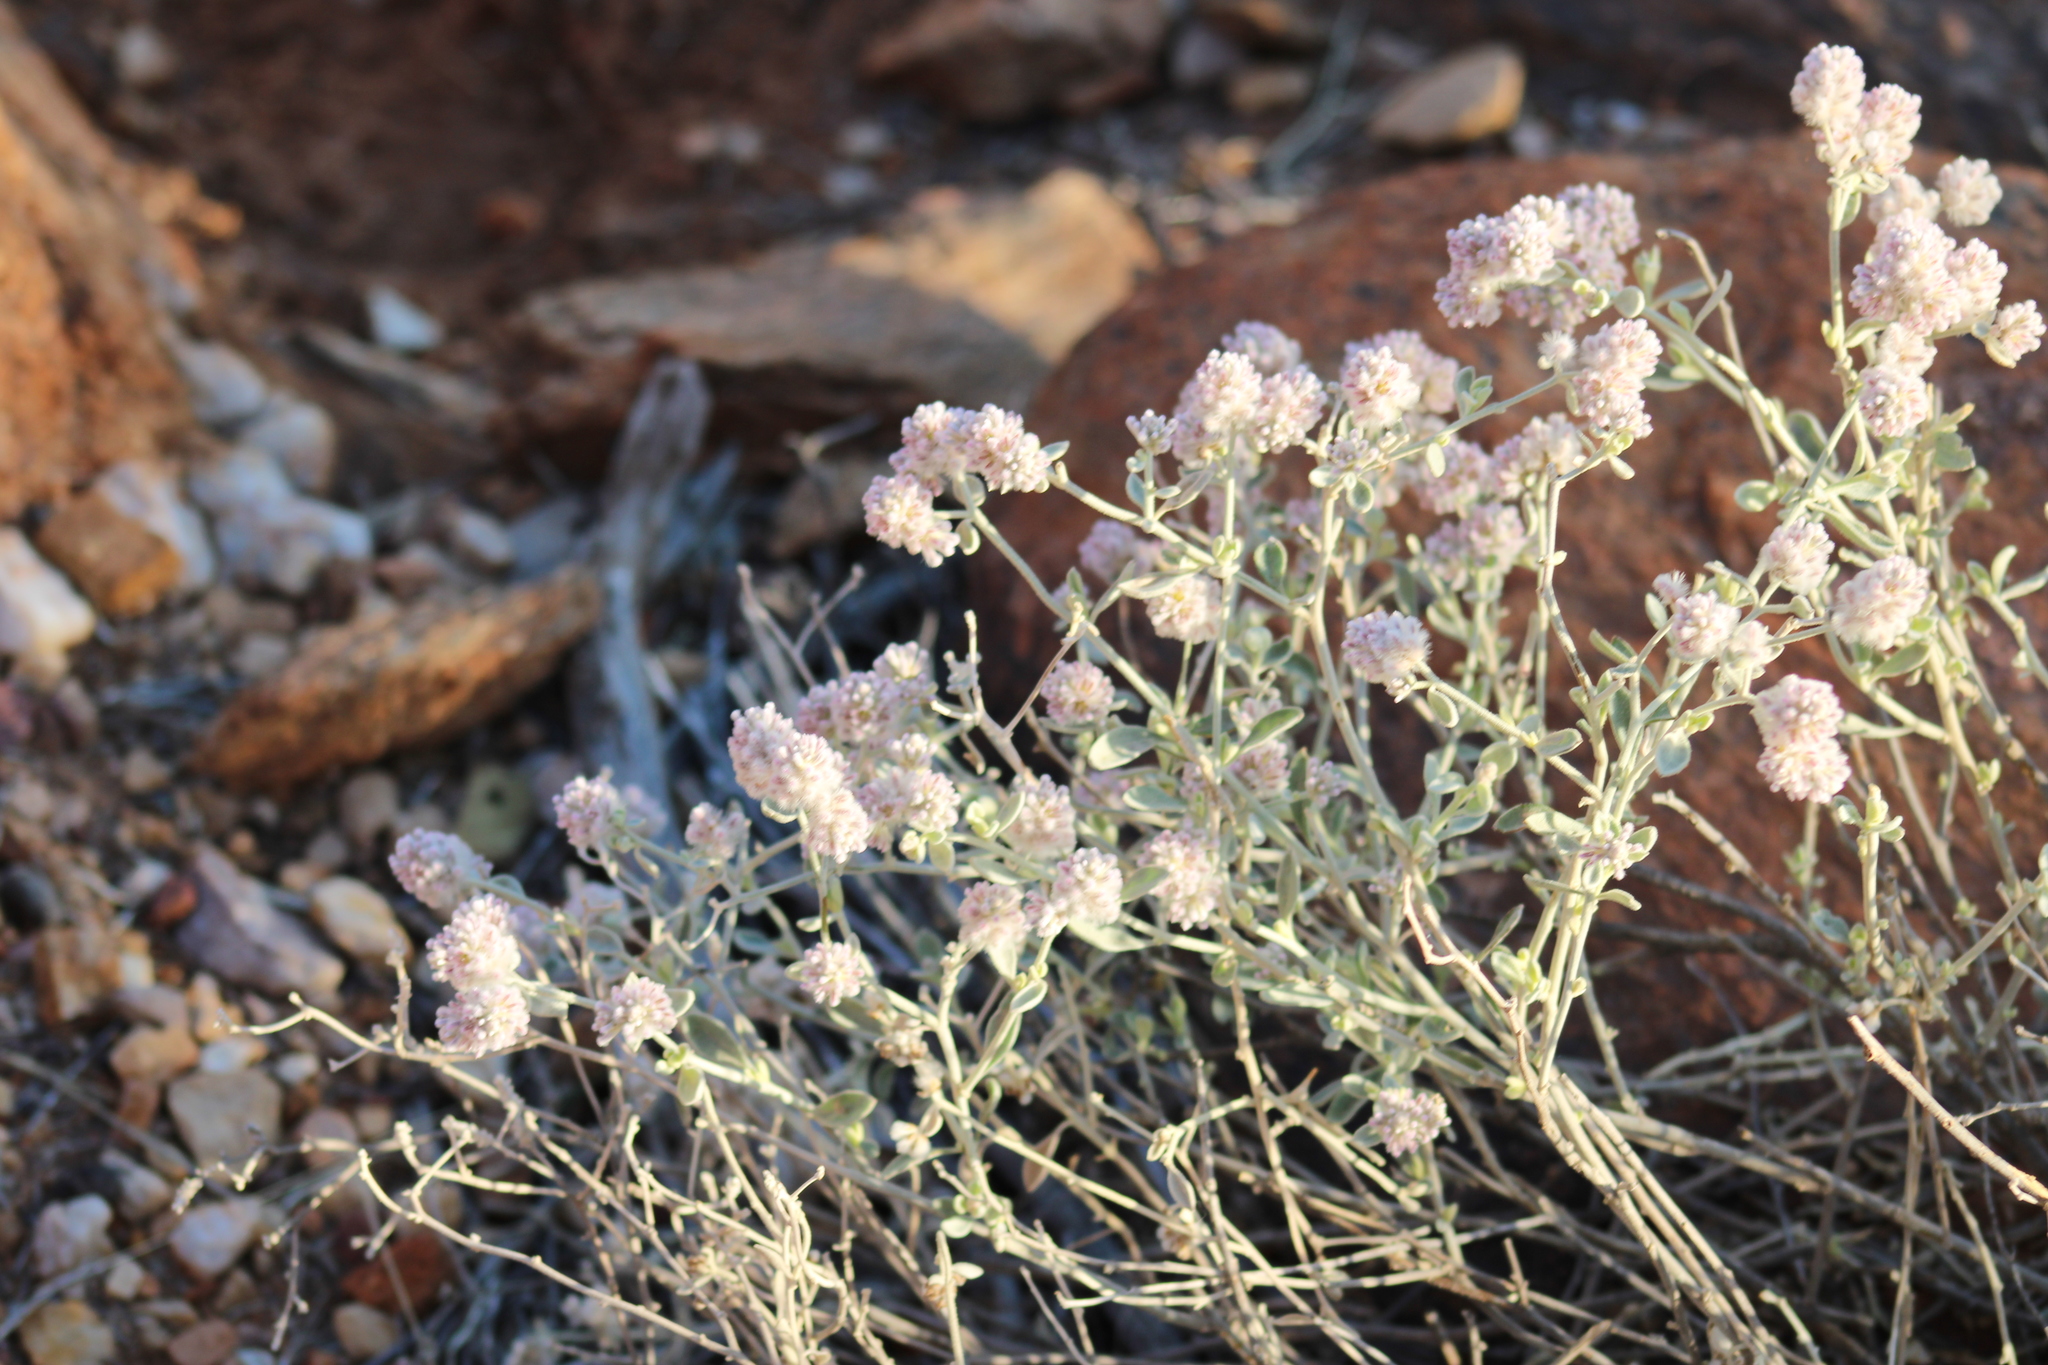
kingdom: Plantae
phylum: Tracheophyta
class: Magnoliopsida
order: Caryophyllales
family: Amaranthaceae
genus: Ptilotus
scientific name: Ptilotus obovatus
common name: Cottonbush
